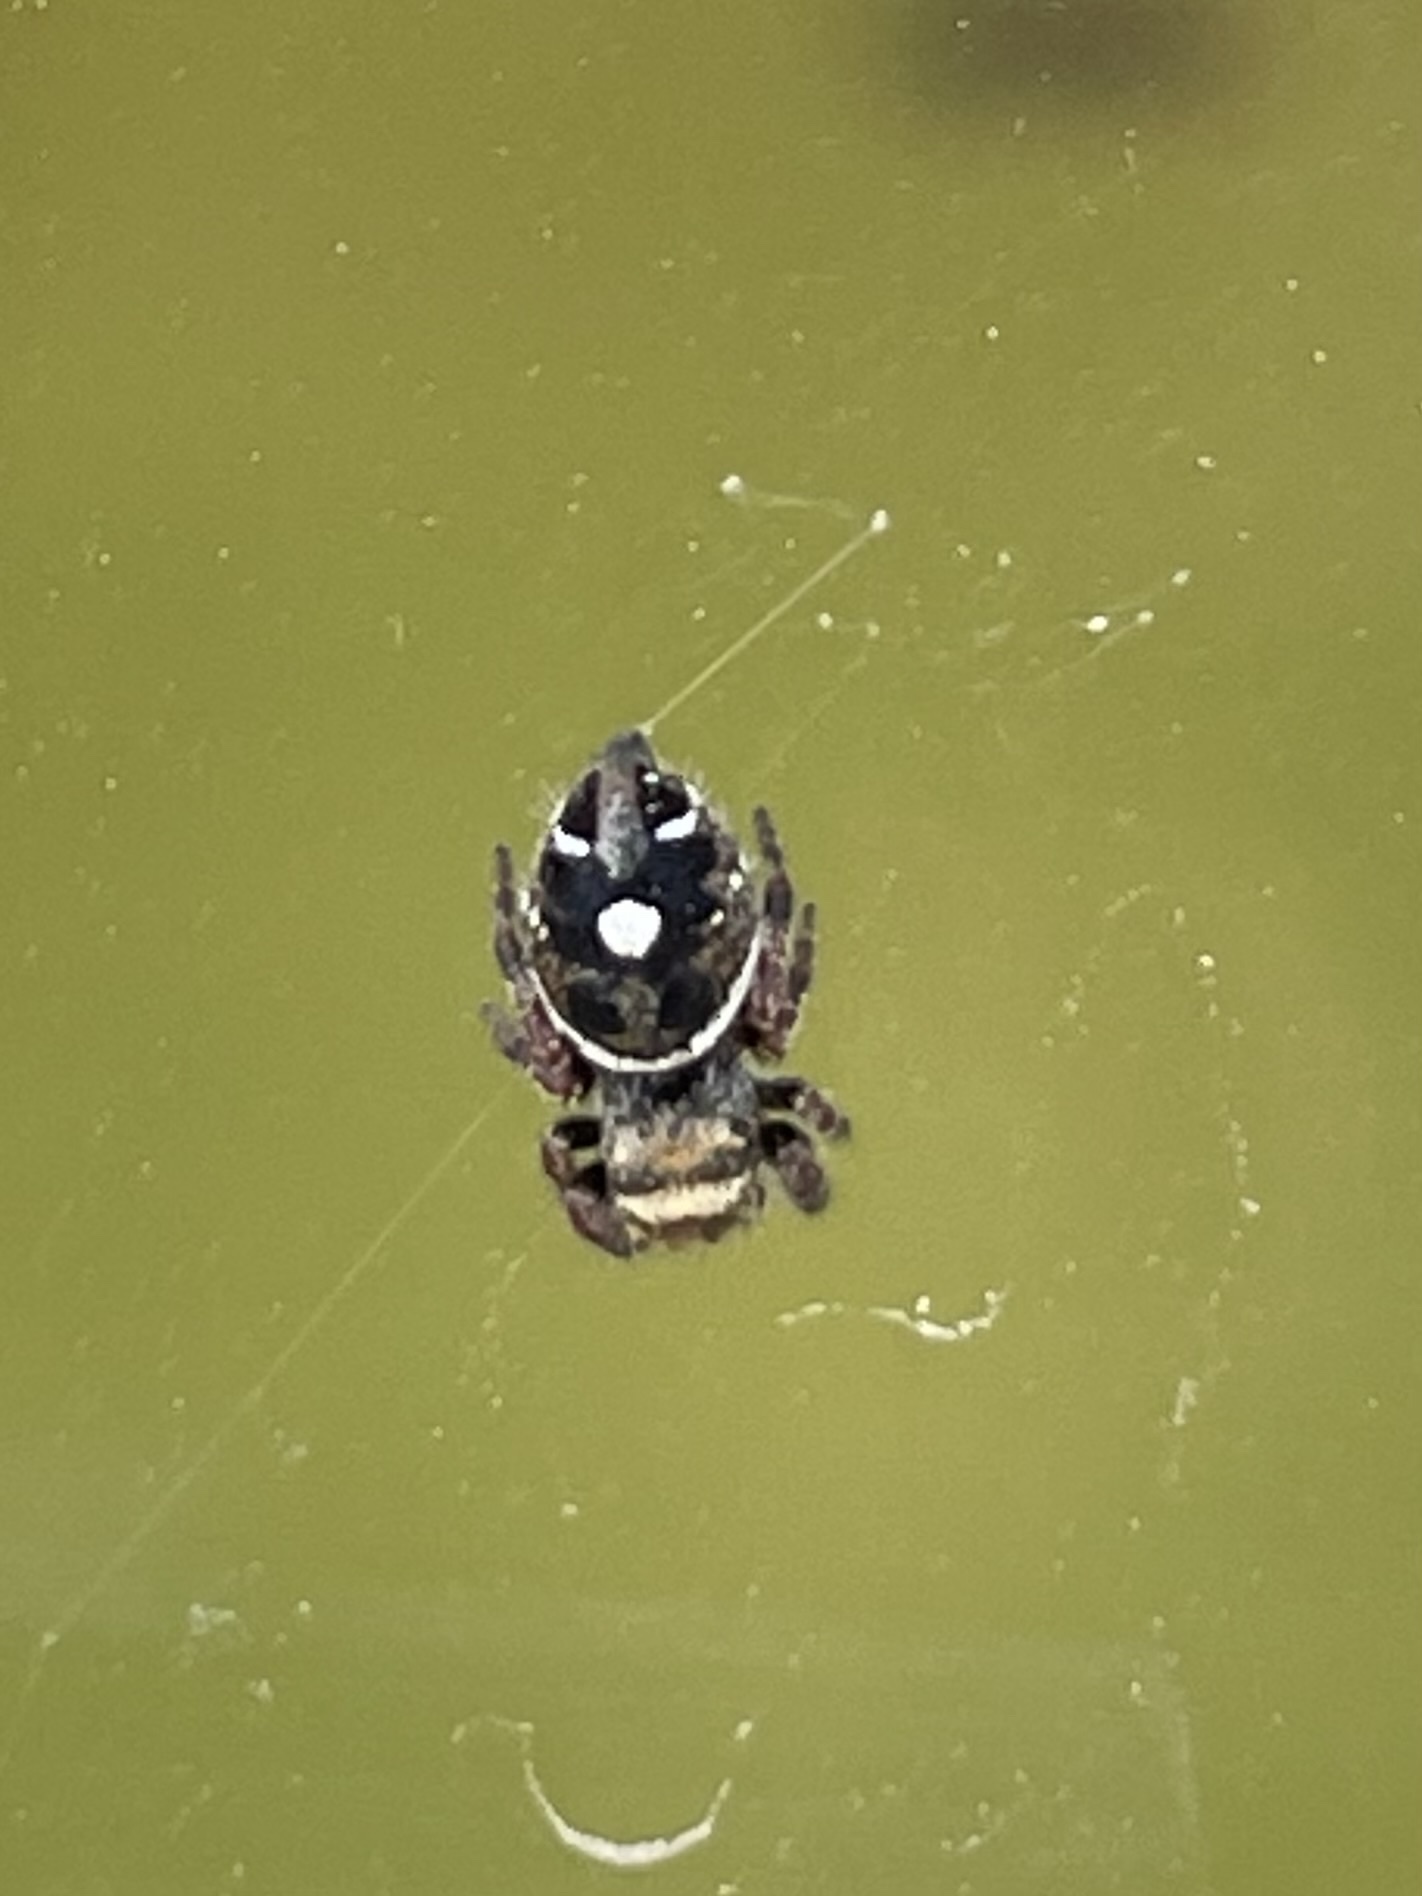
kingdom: Animalia
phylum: Arthropoda
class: Arachnida
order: Araneae
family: Salticidae
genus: Phidippus
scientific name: Phidippus audax
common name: Bold jumper
